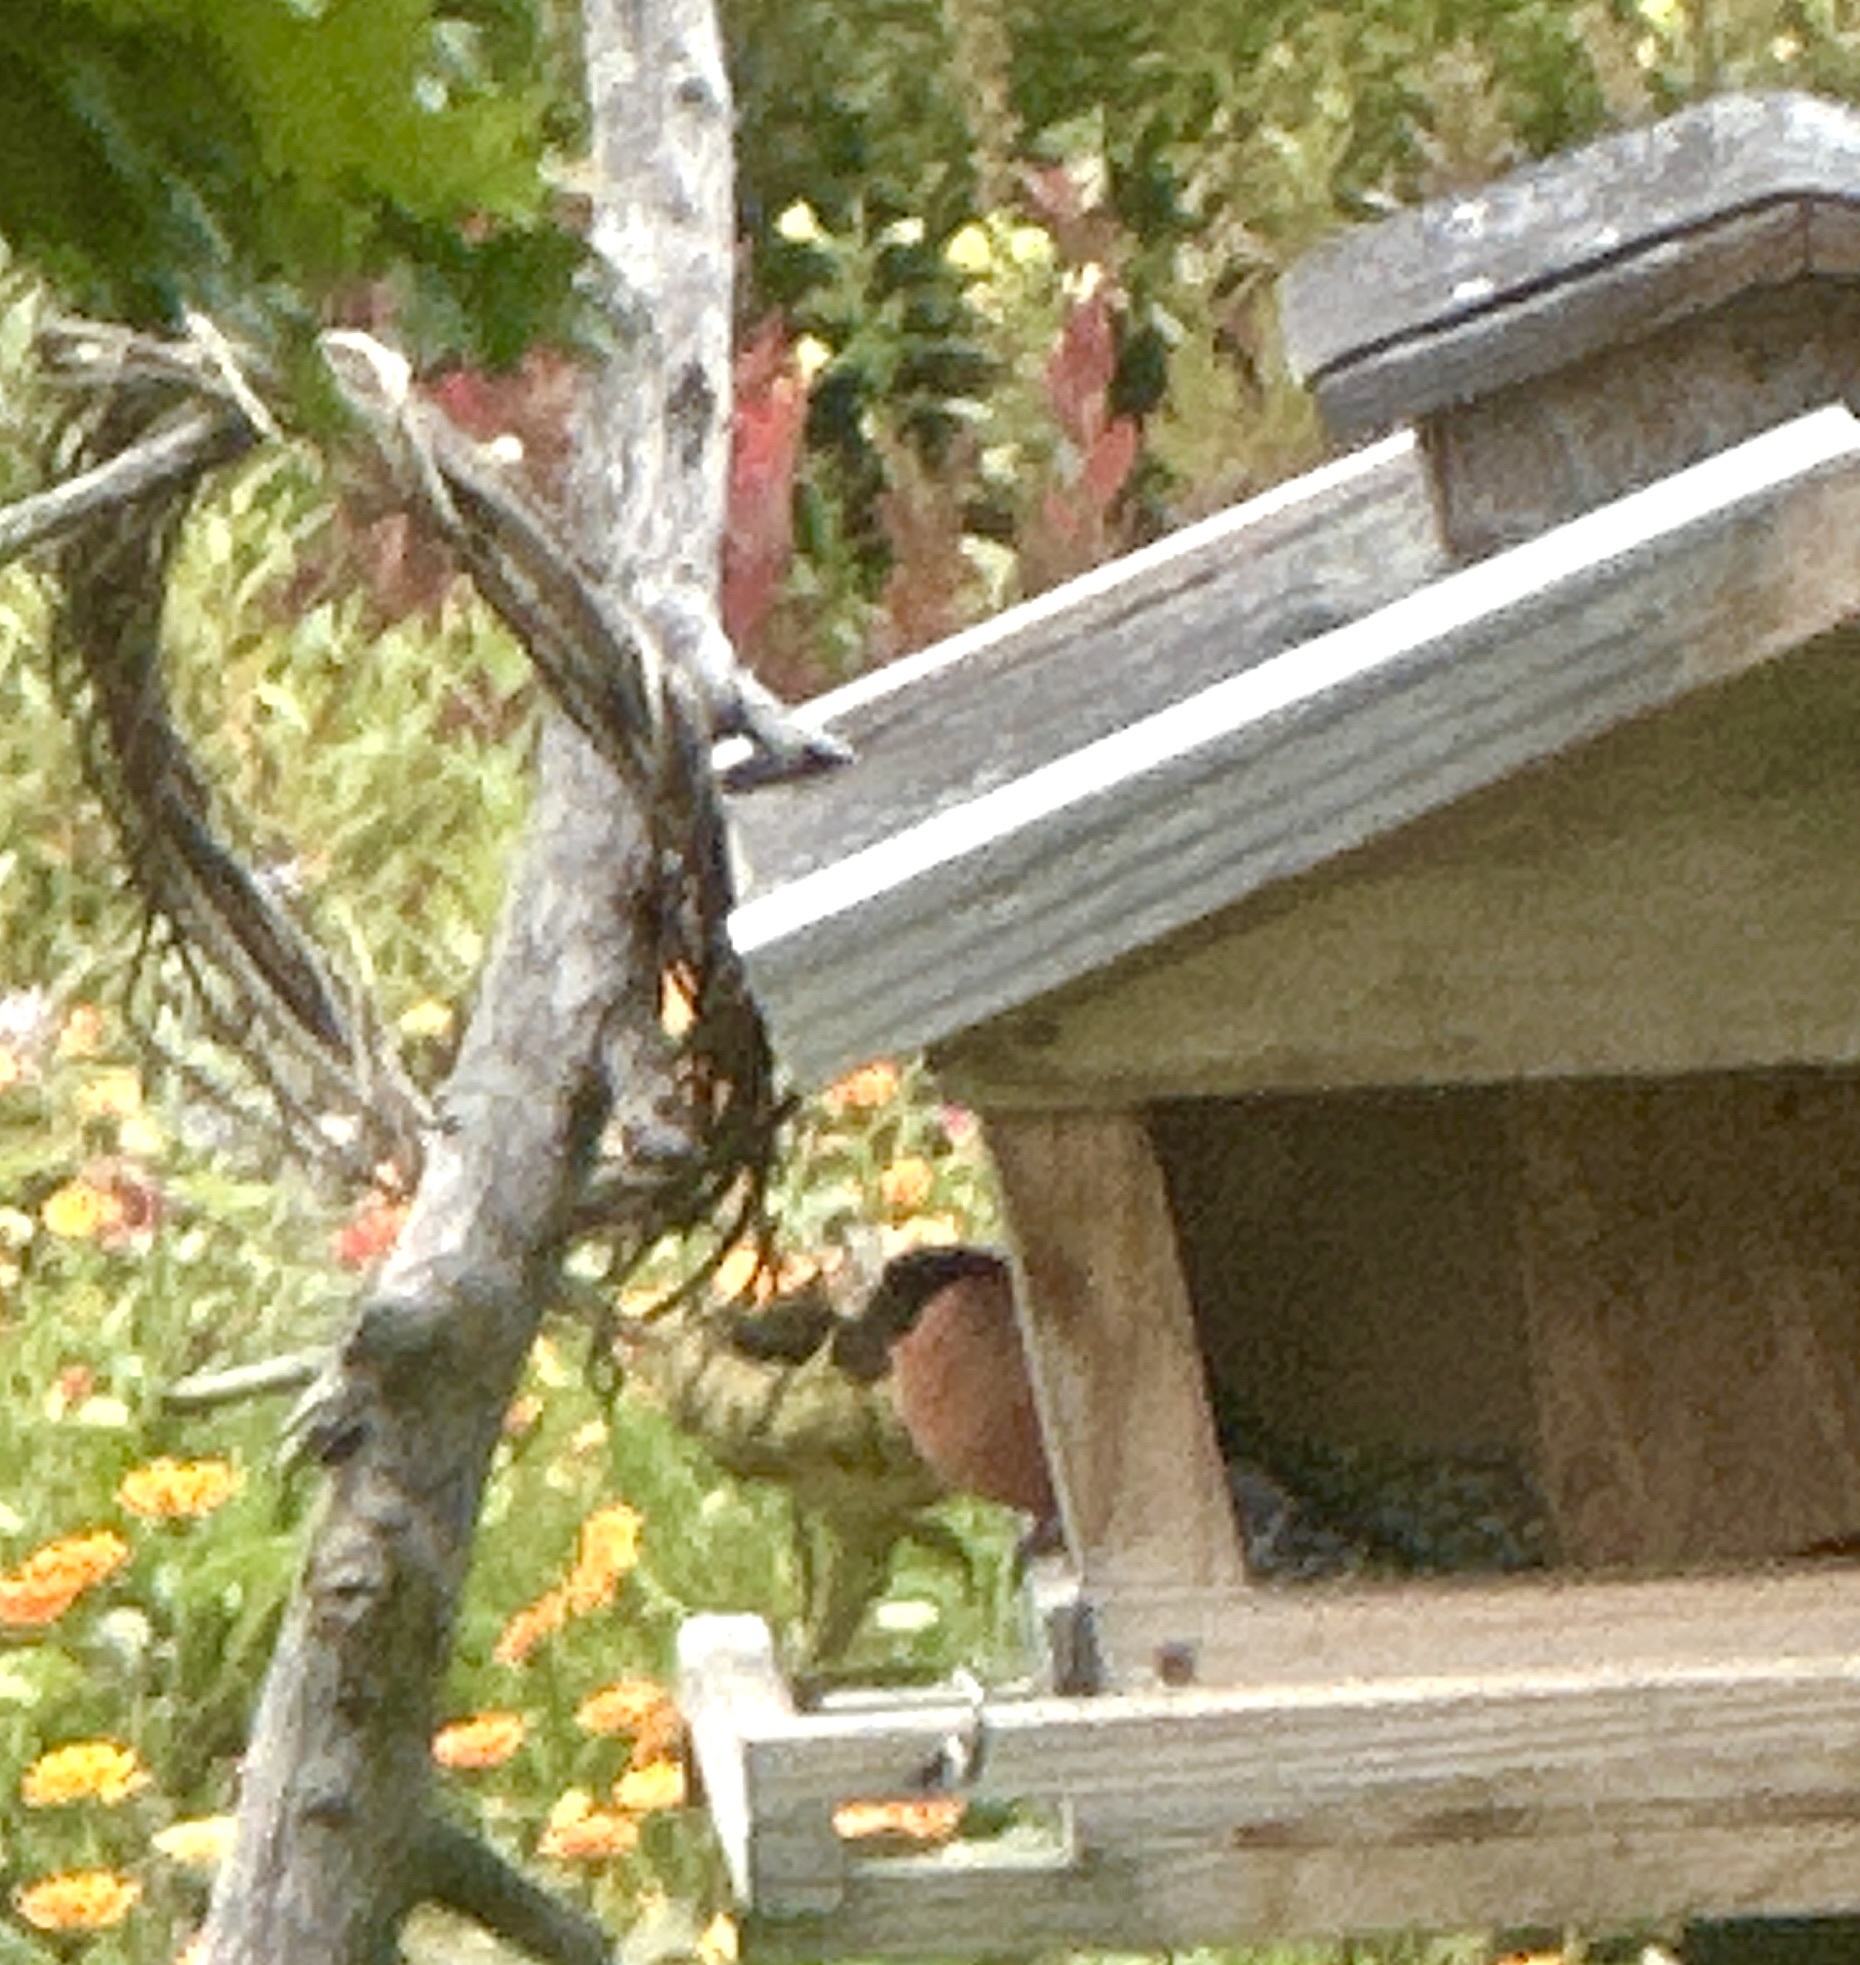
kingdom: Animalia
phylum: Chordata
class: Aves
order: Passeriformes
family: Fringillidae
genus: Pyrrhula
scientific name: Pyrrhula pyrrhula
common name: Eurasian bullfinch
